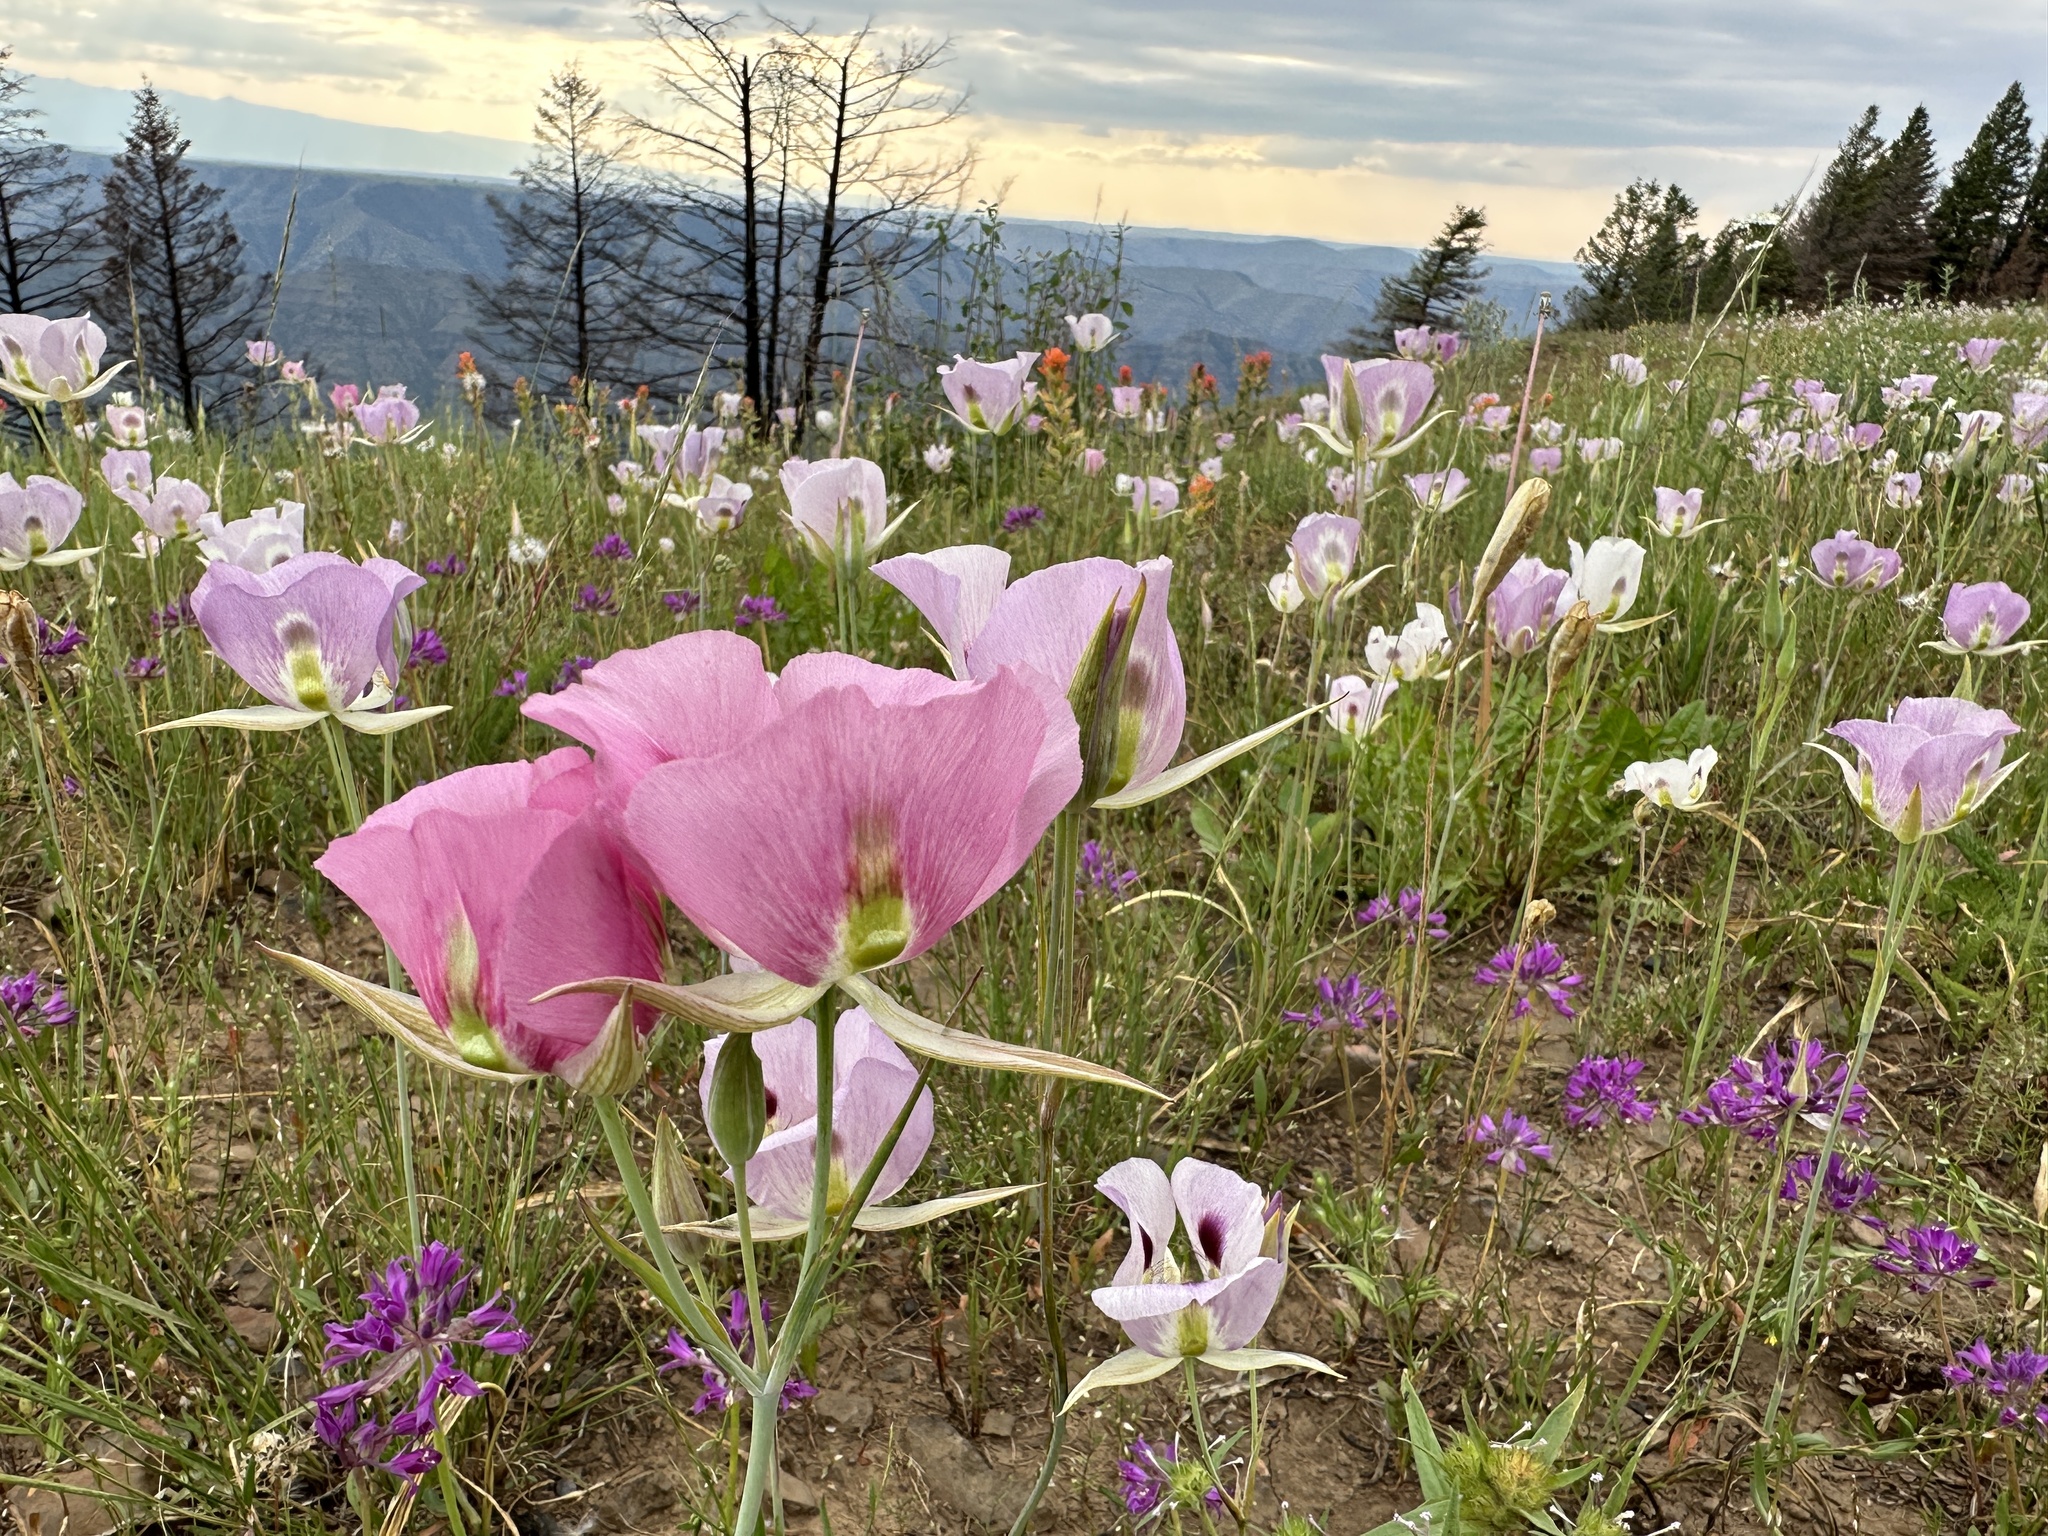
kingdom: Plantae
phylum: Tracheophyta
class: Liliopsida
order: Liliales
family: Liliaceae
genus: Calochortus
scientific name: Calochortus eurycarpus
